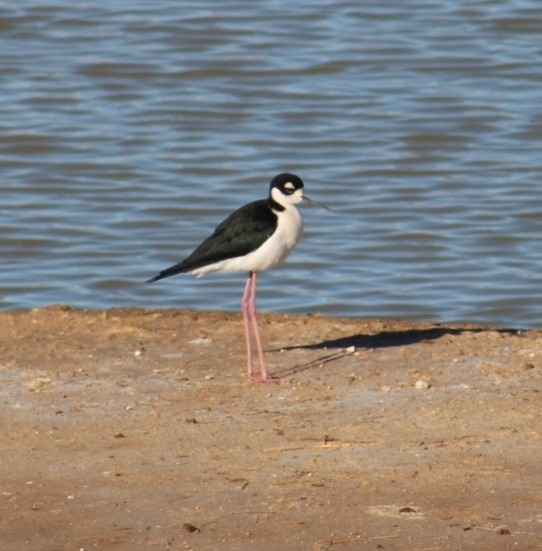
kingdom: Animalia
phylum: Chordata
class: Aves
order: Charadriiformes
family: Recurvirostridae
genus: Himantopus
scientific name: Himantopus mexicanus
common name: Black-necked stilt
